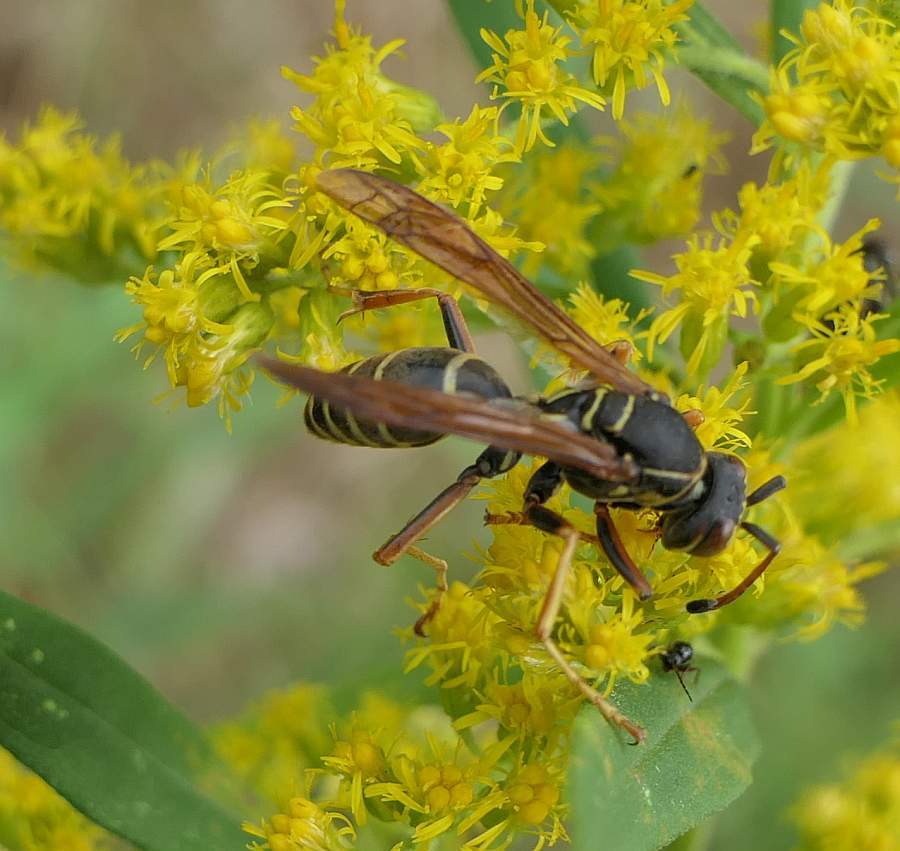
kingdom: Animalia
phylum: Arthropoda
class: Insecta
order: Hymenoptera
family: Eumenidae
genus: Polistes
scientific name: Polistes fuscatus
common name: Dark paper wasp
